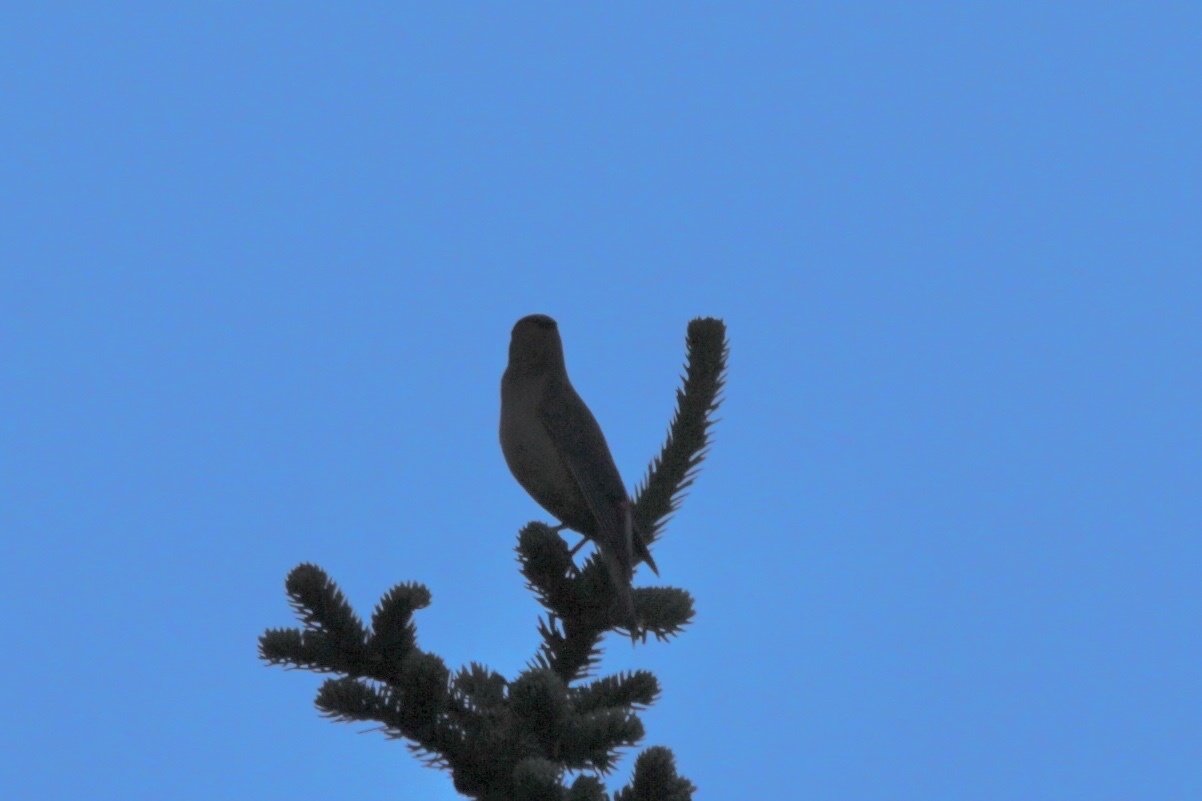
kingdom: Animalia
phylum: Chordata
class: Aves
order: Passeriformes
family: Bombycillidae
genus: Bombycilla
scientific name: Bombycilla cedrorum
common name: Cedar waxwing
